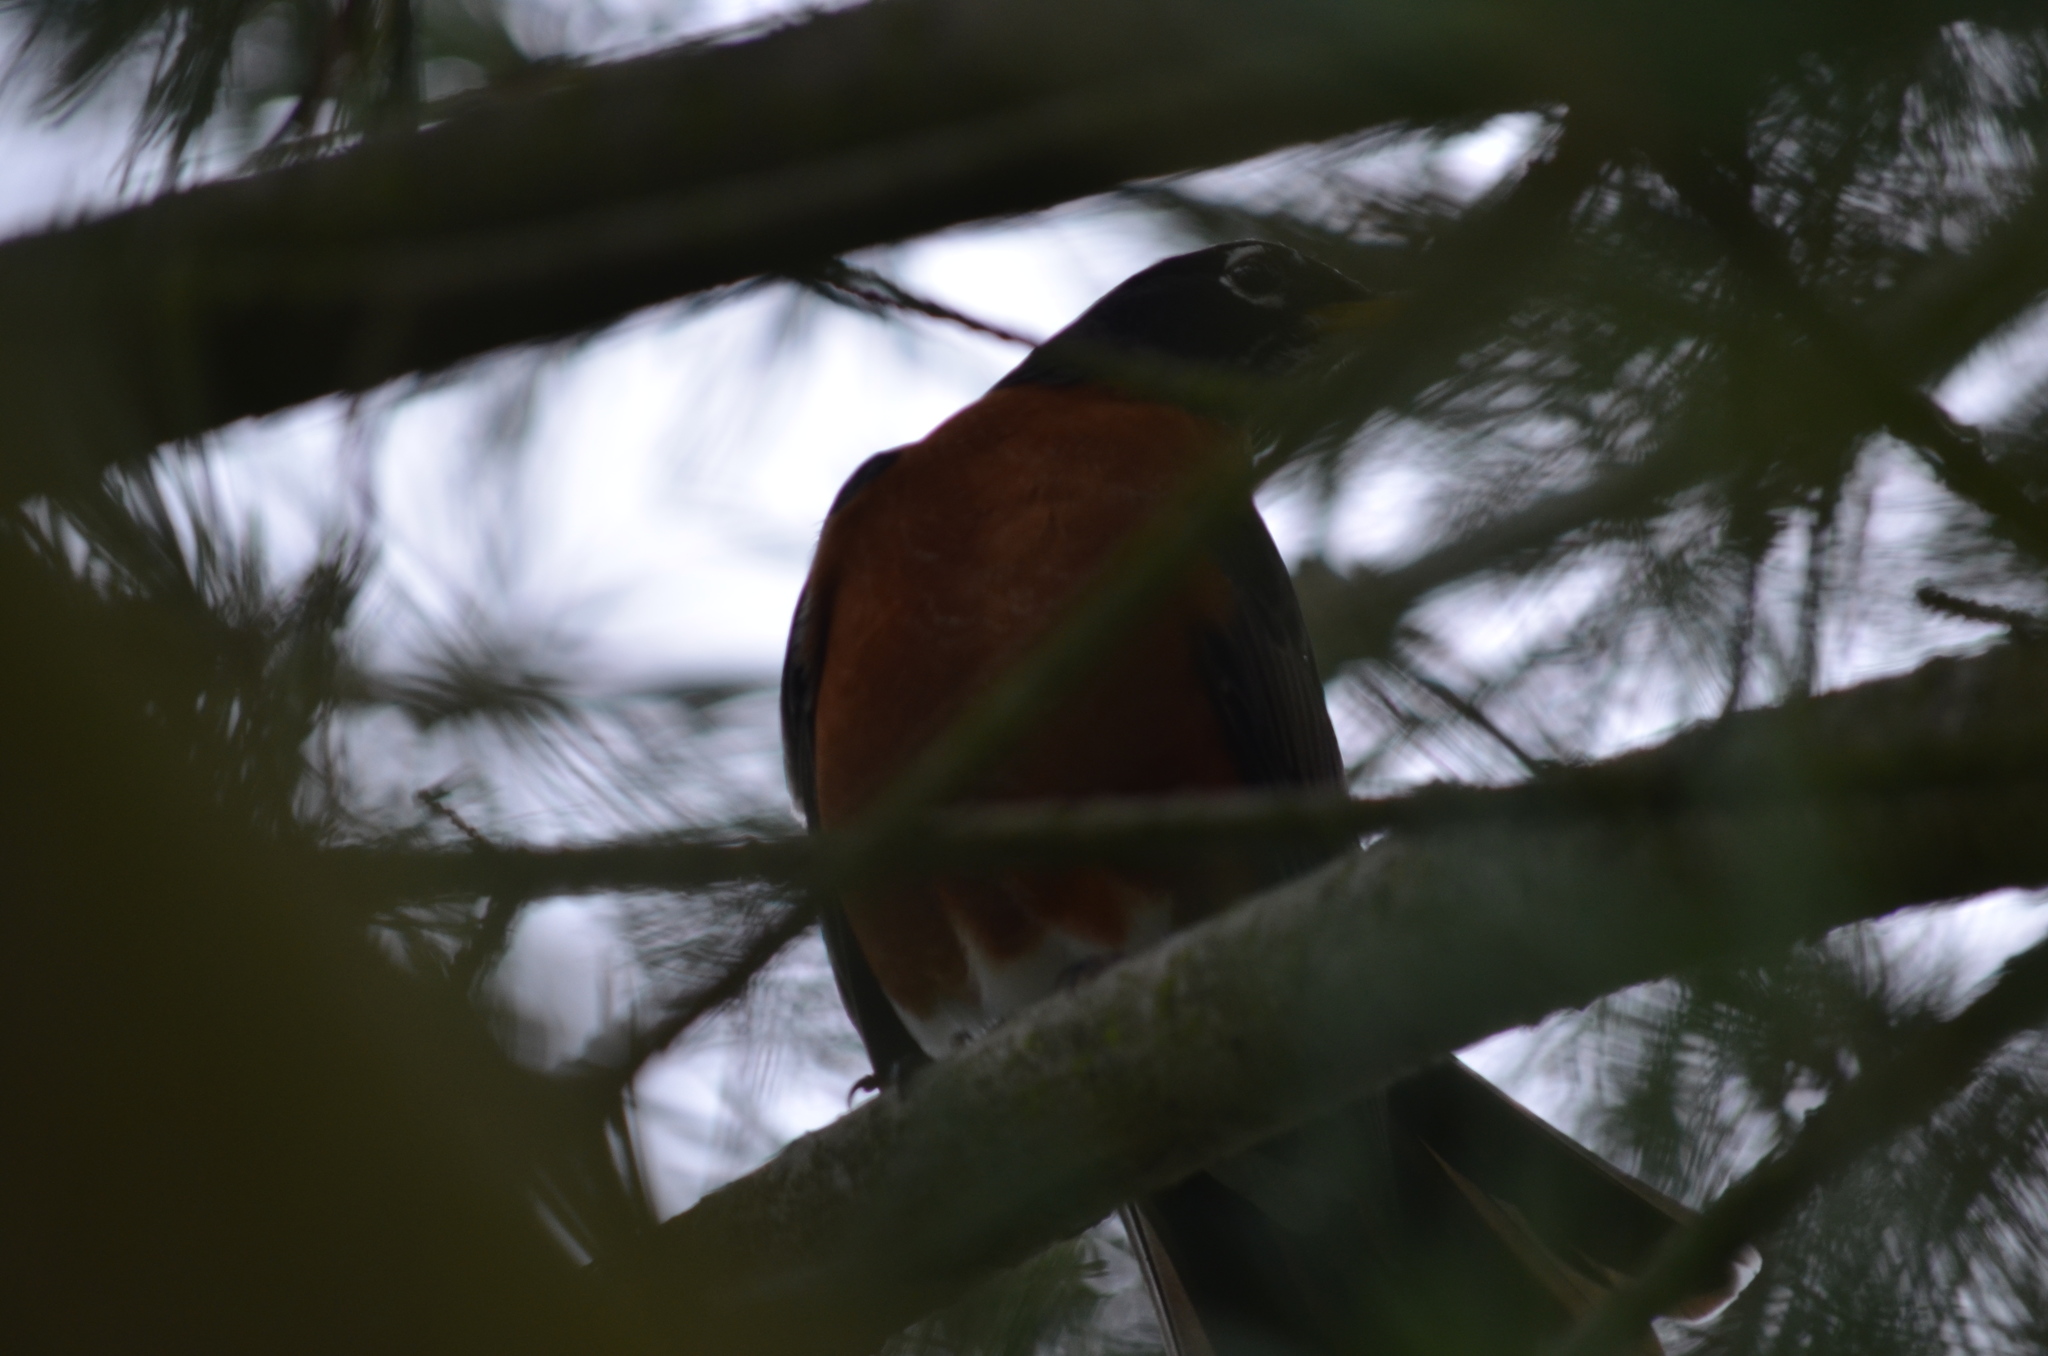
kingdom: Animalia
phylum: Chordata
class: Aves
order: Passeriformes
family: Turdidae
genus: Turdus
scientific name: Turdus migratorius
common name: American robin
